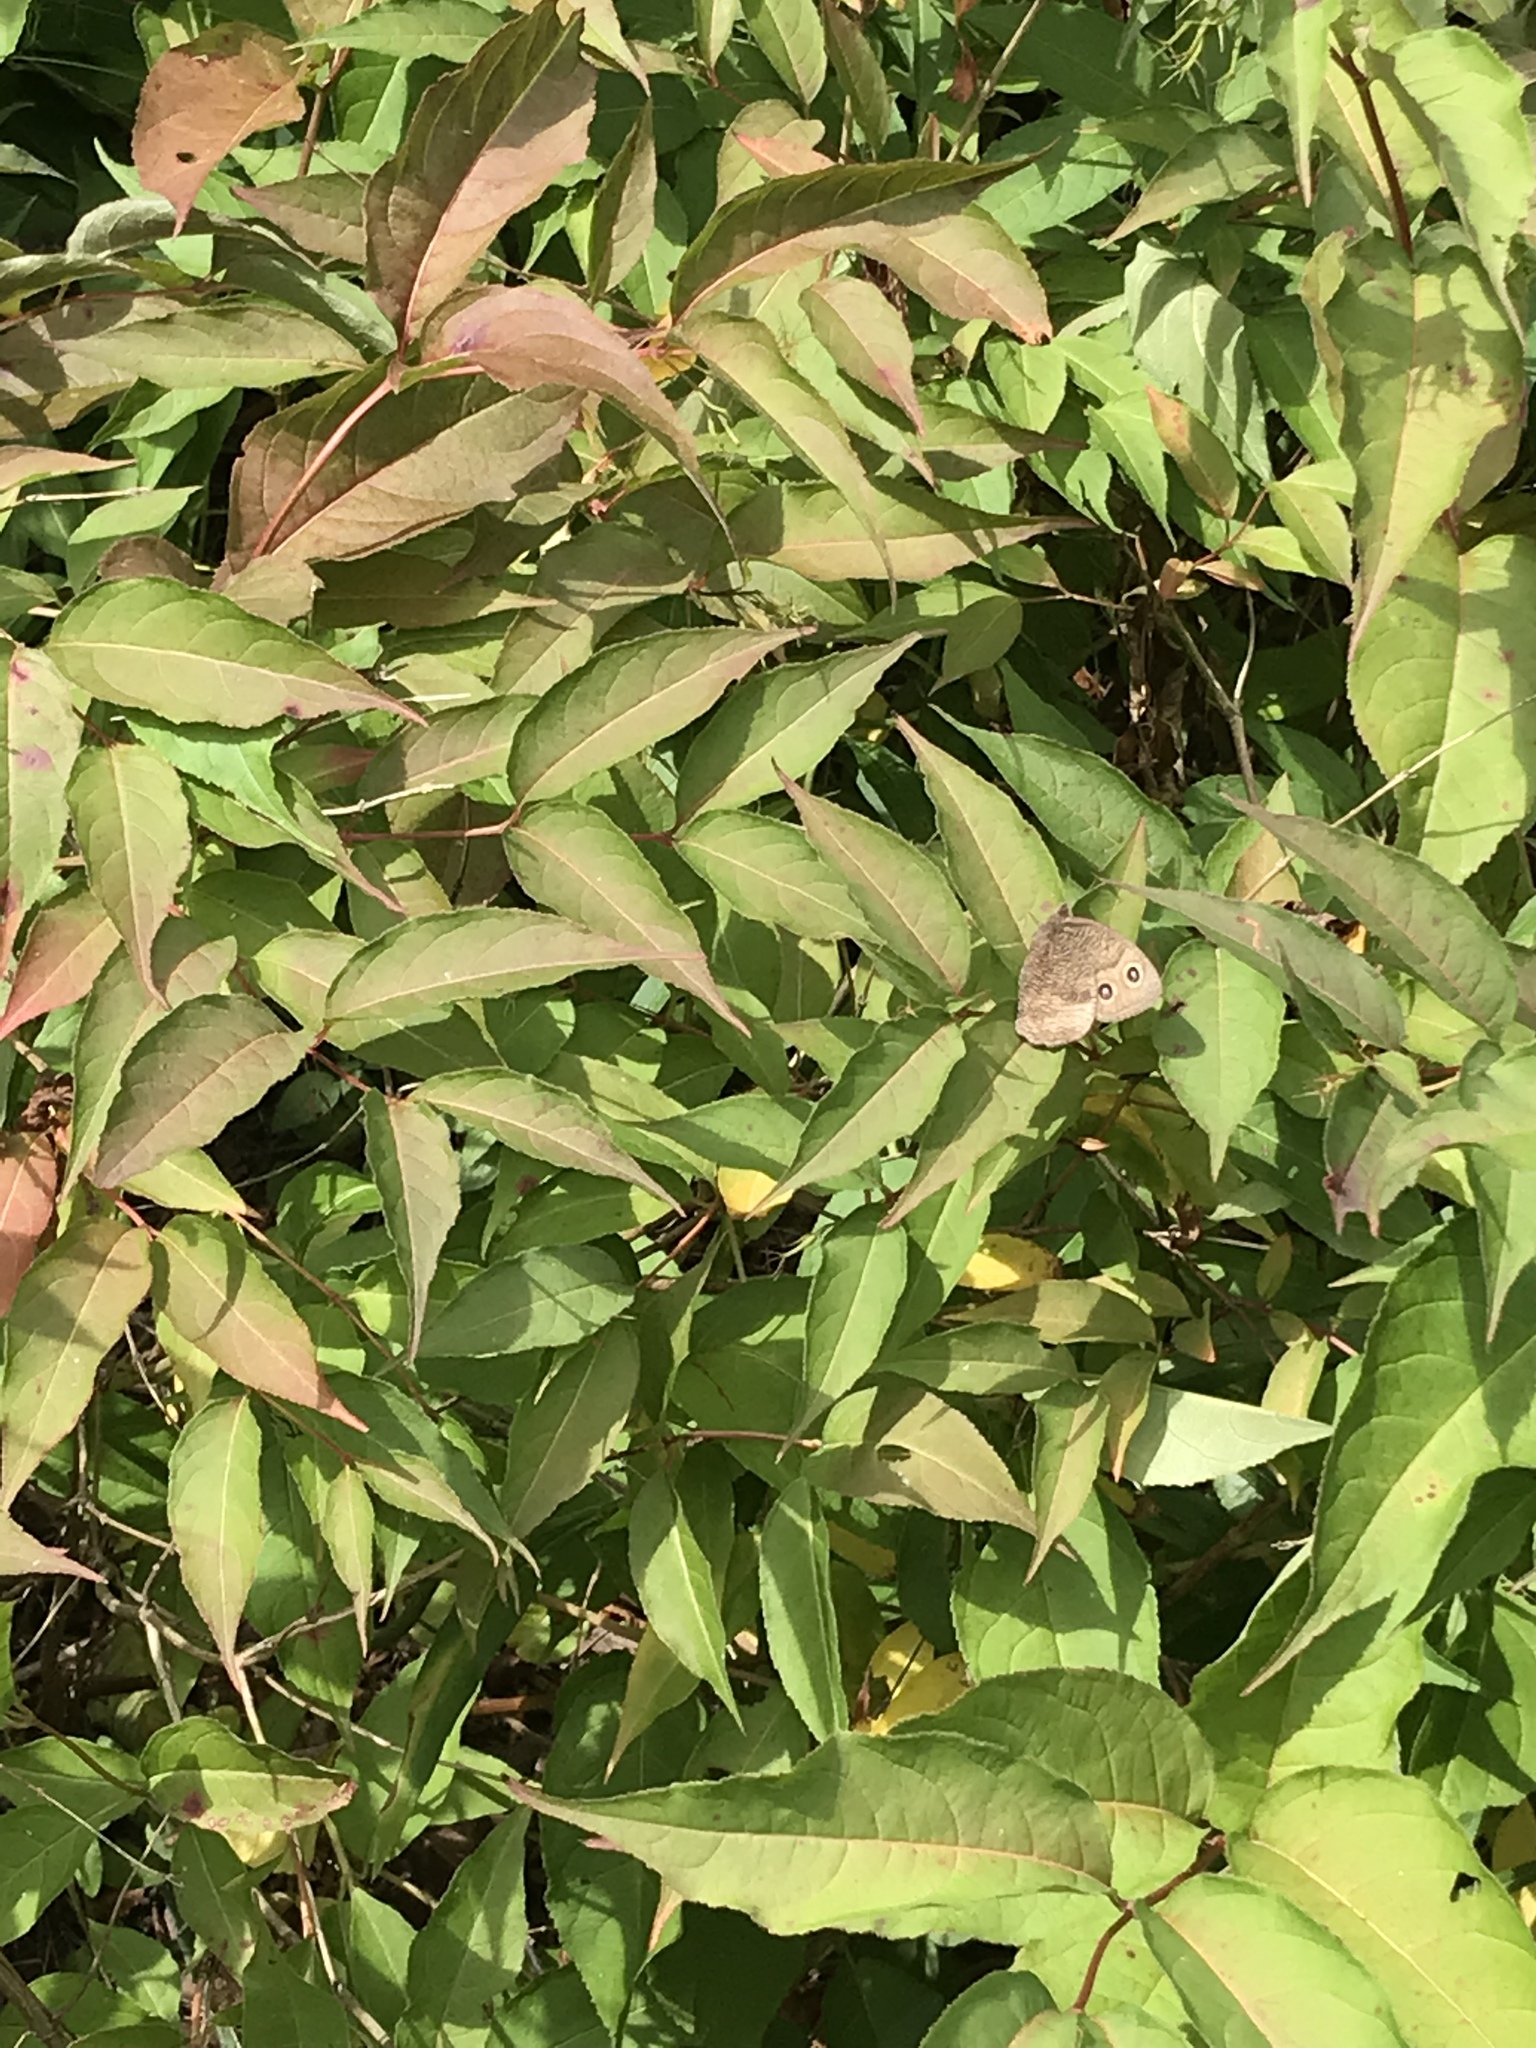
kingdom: Plantae
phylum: Tracheophyta
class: Magnoliopsida
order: Dipsacales
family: Caprifoliaceae
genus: Diervilla
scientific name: Diervilla lonicera
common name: Bush-honeysuckle
